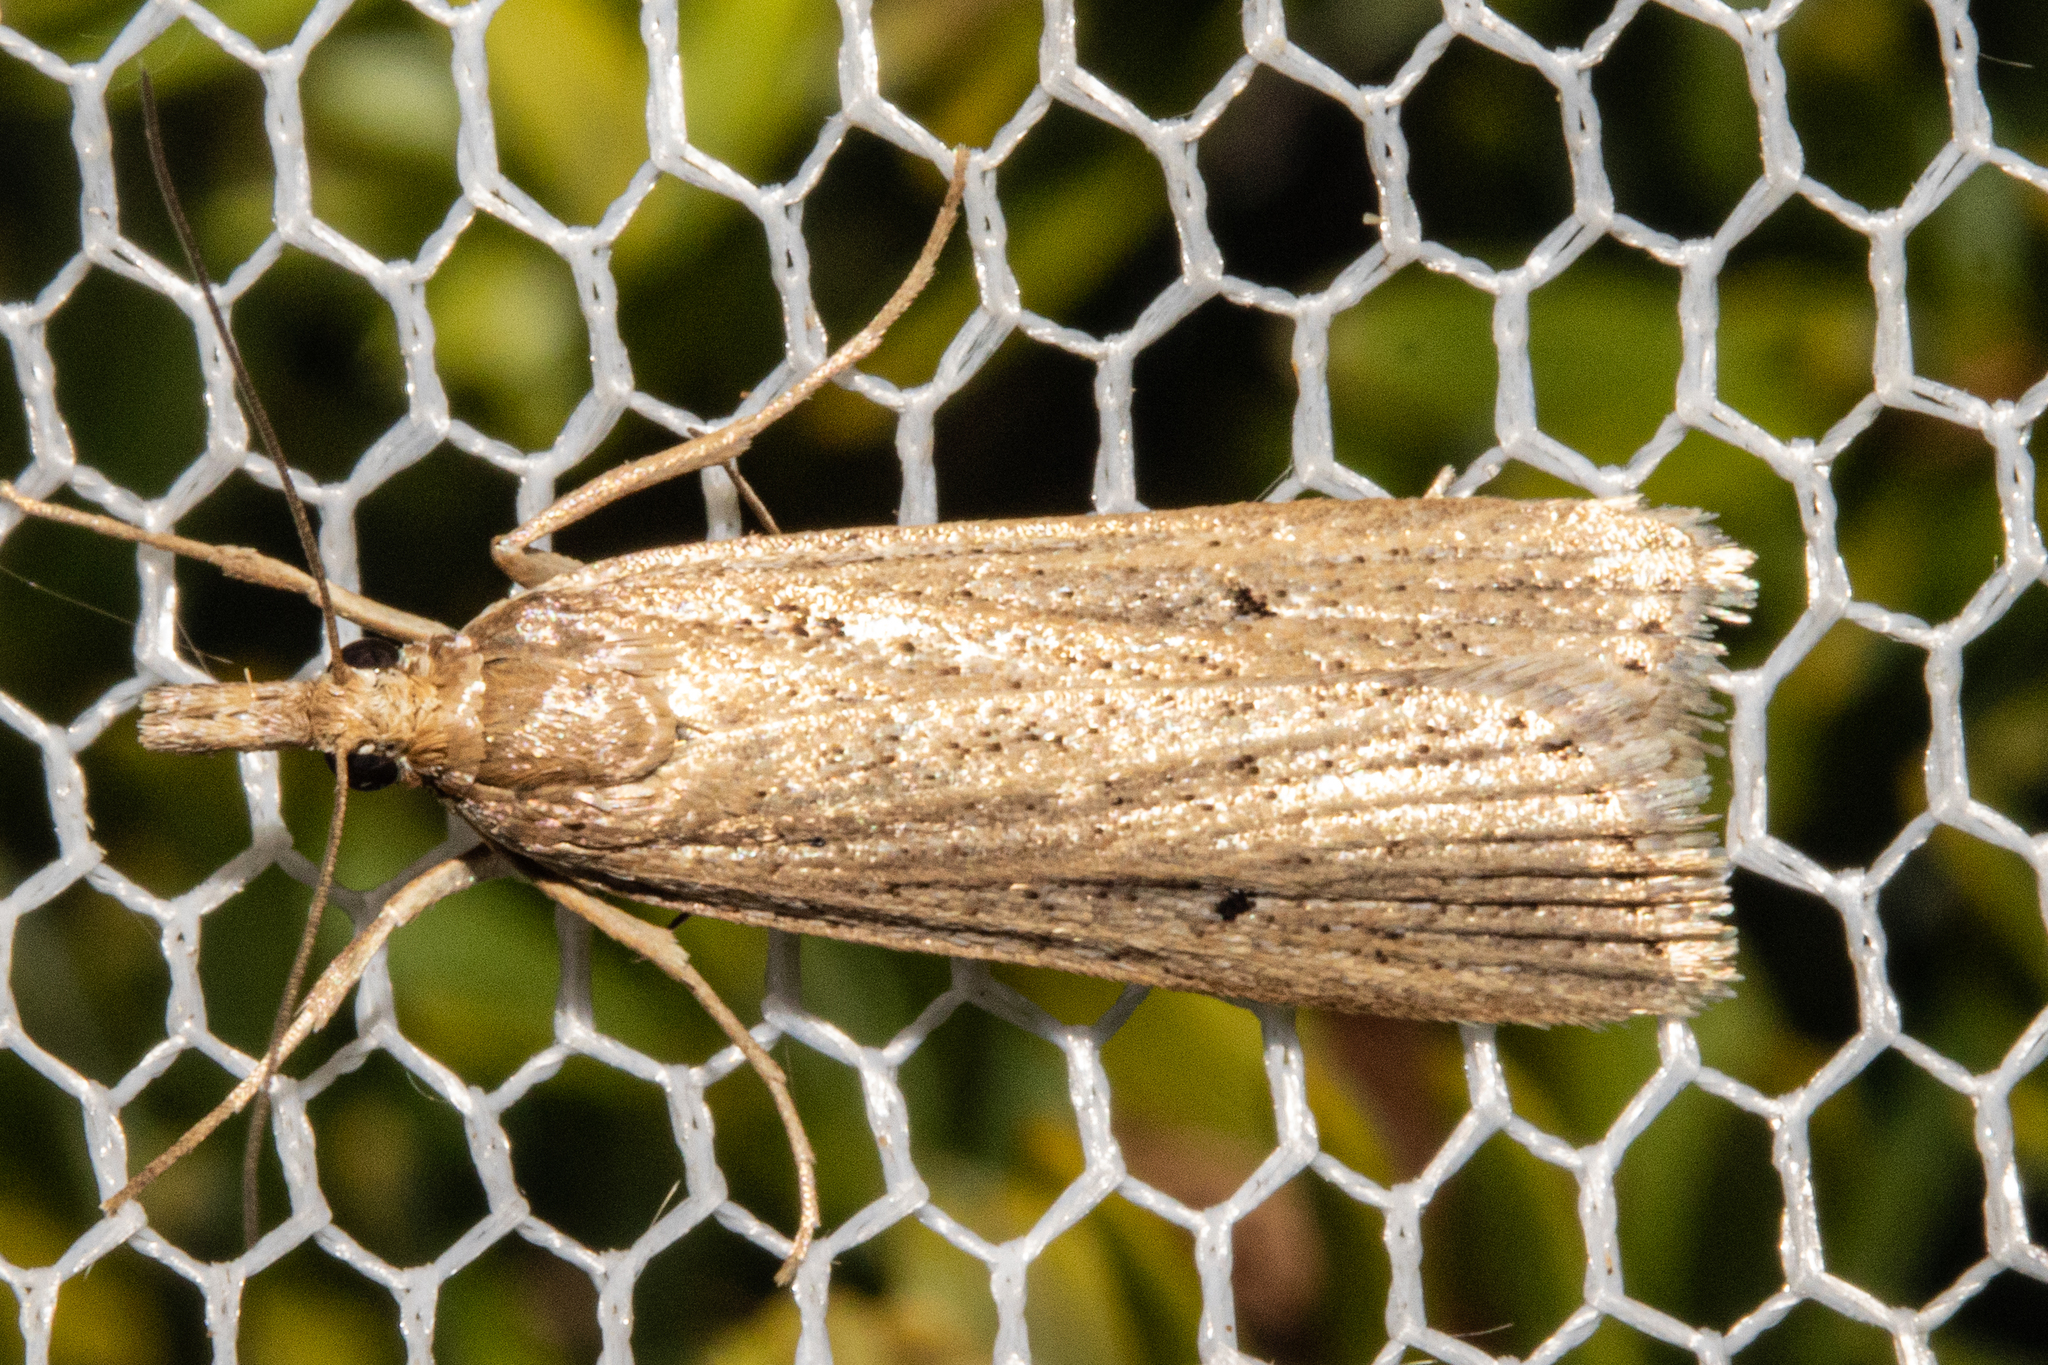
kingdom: Animalia
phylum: Arthropoda
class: Insecta
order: Lepidoptera
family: Crambidae
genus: Eudonia
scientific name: Eudonia sabulosella
